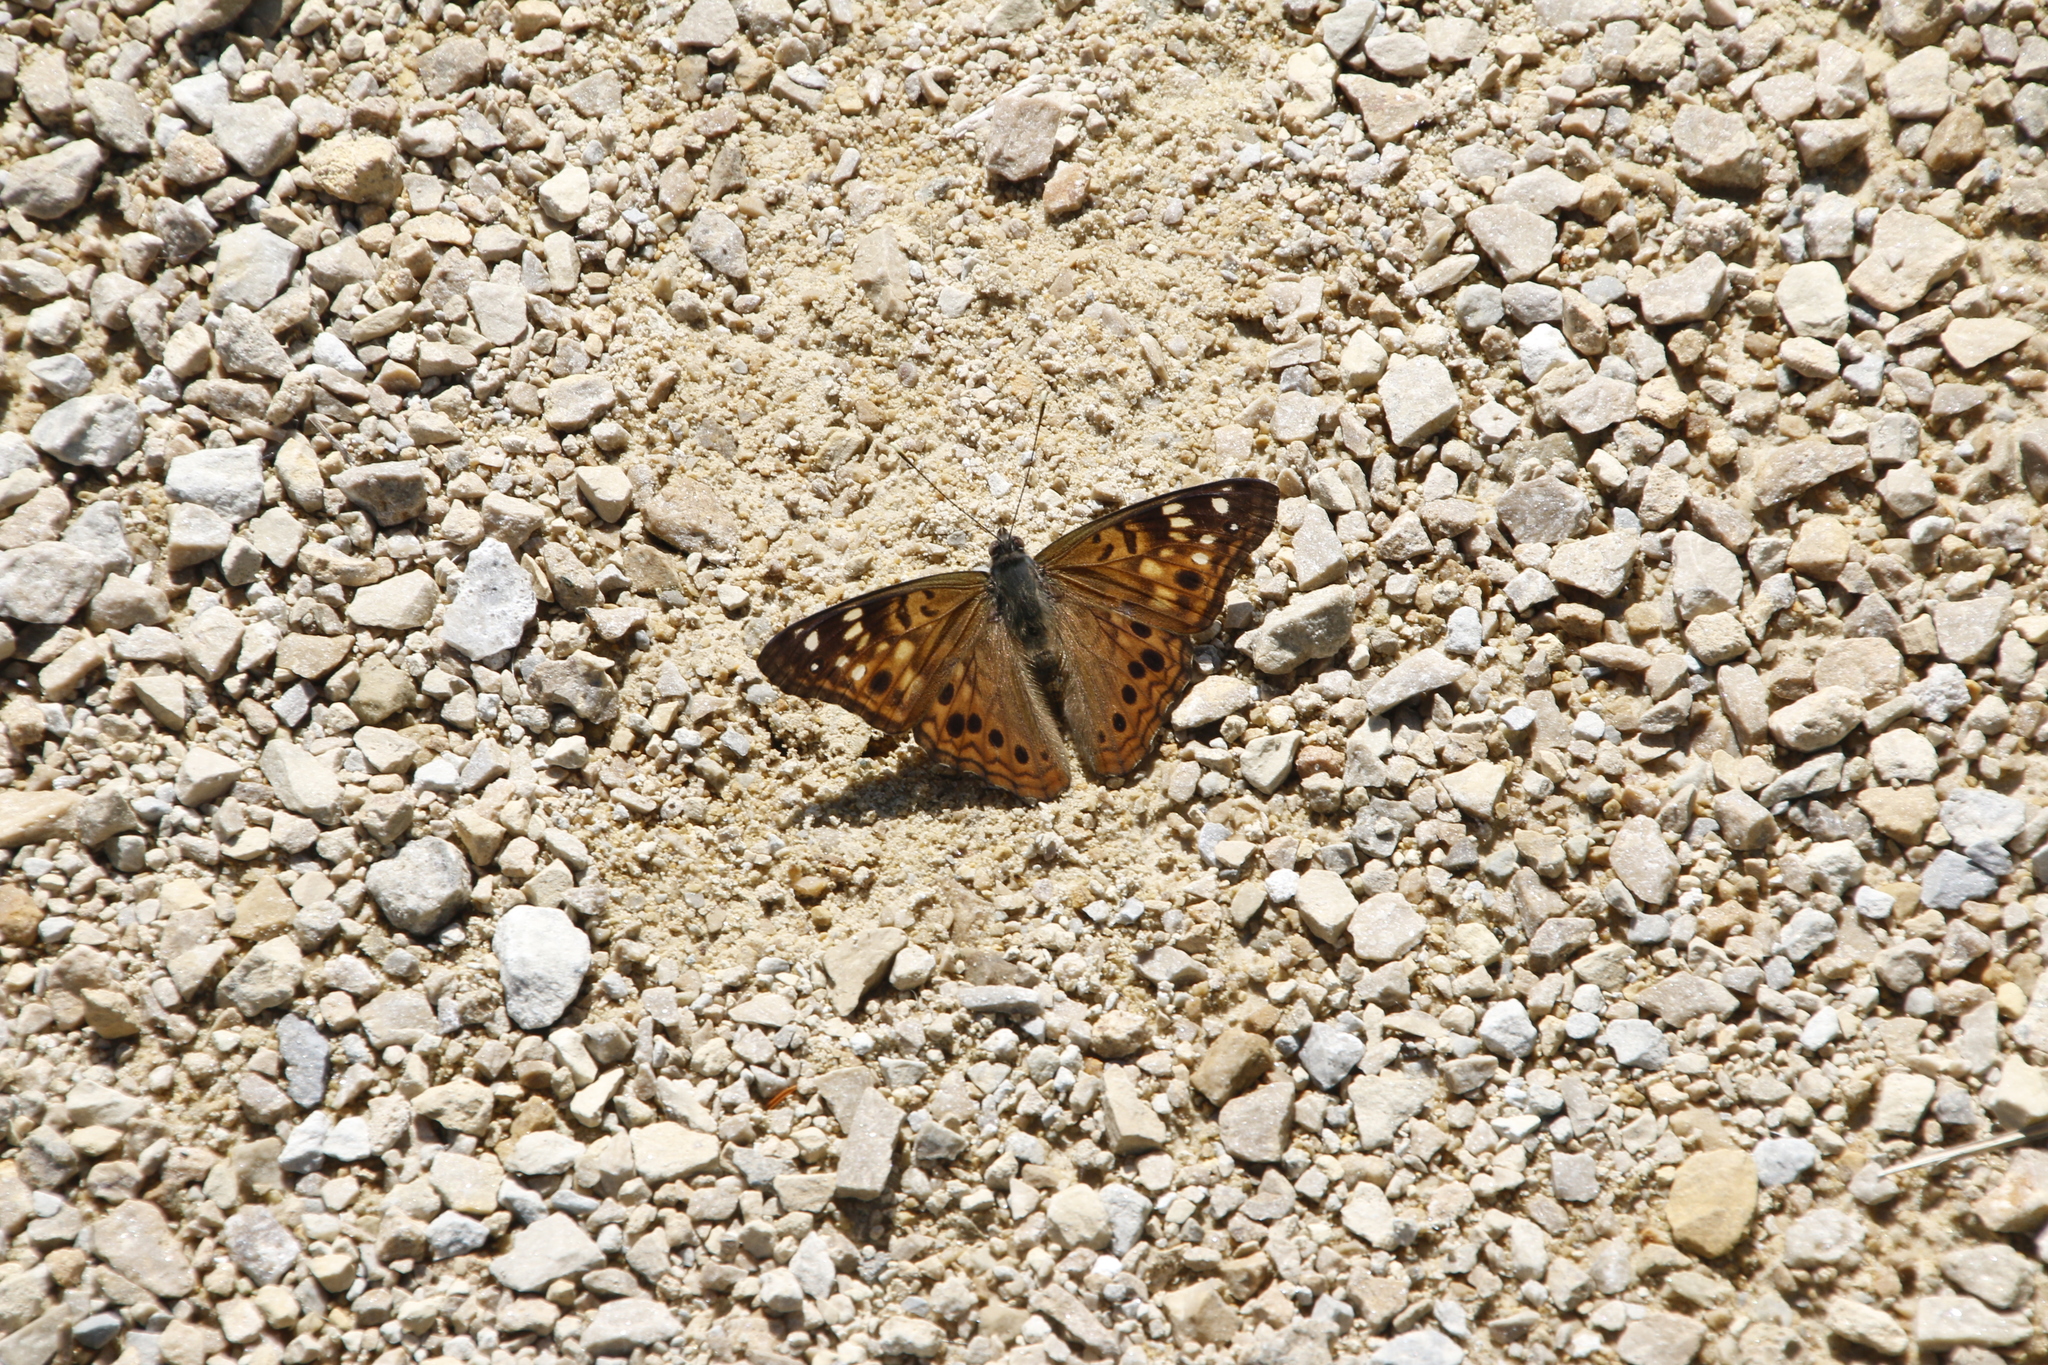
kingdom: Animalia
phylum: Arthropoda
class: Insecta
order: Lepidoptera
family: Nymphalidae
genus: Asterocampa
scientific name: Asterocampa celtis
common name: Hackberry emperor
